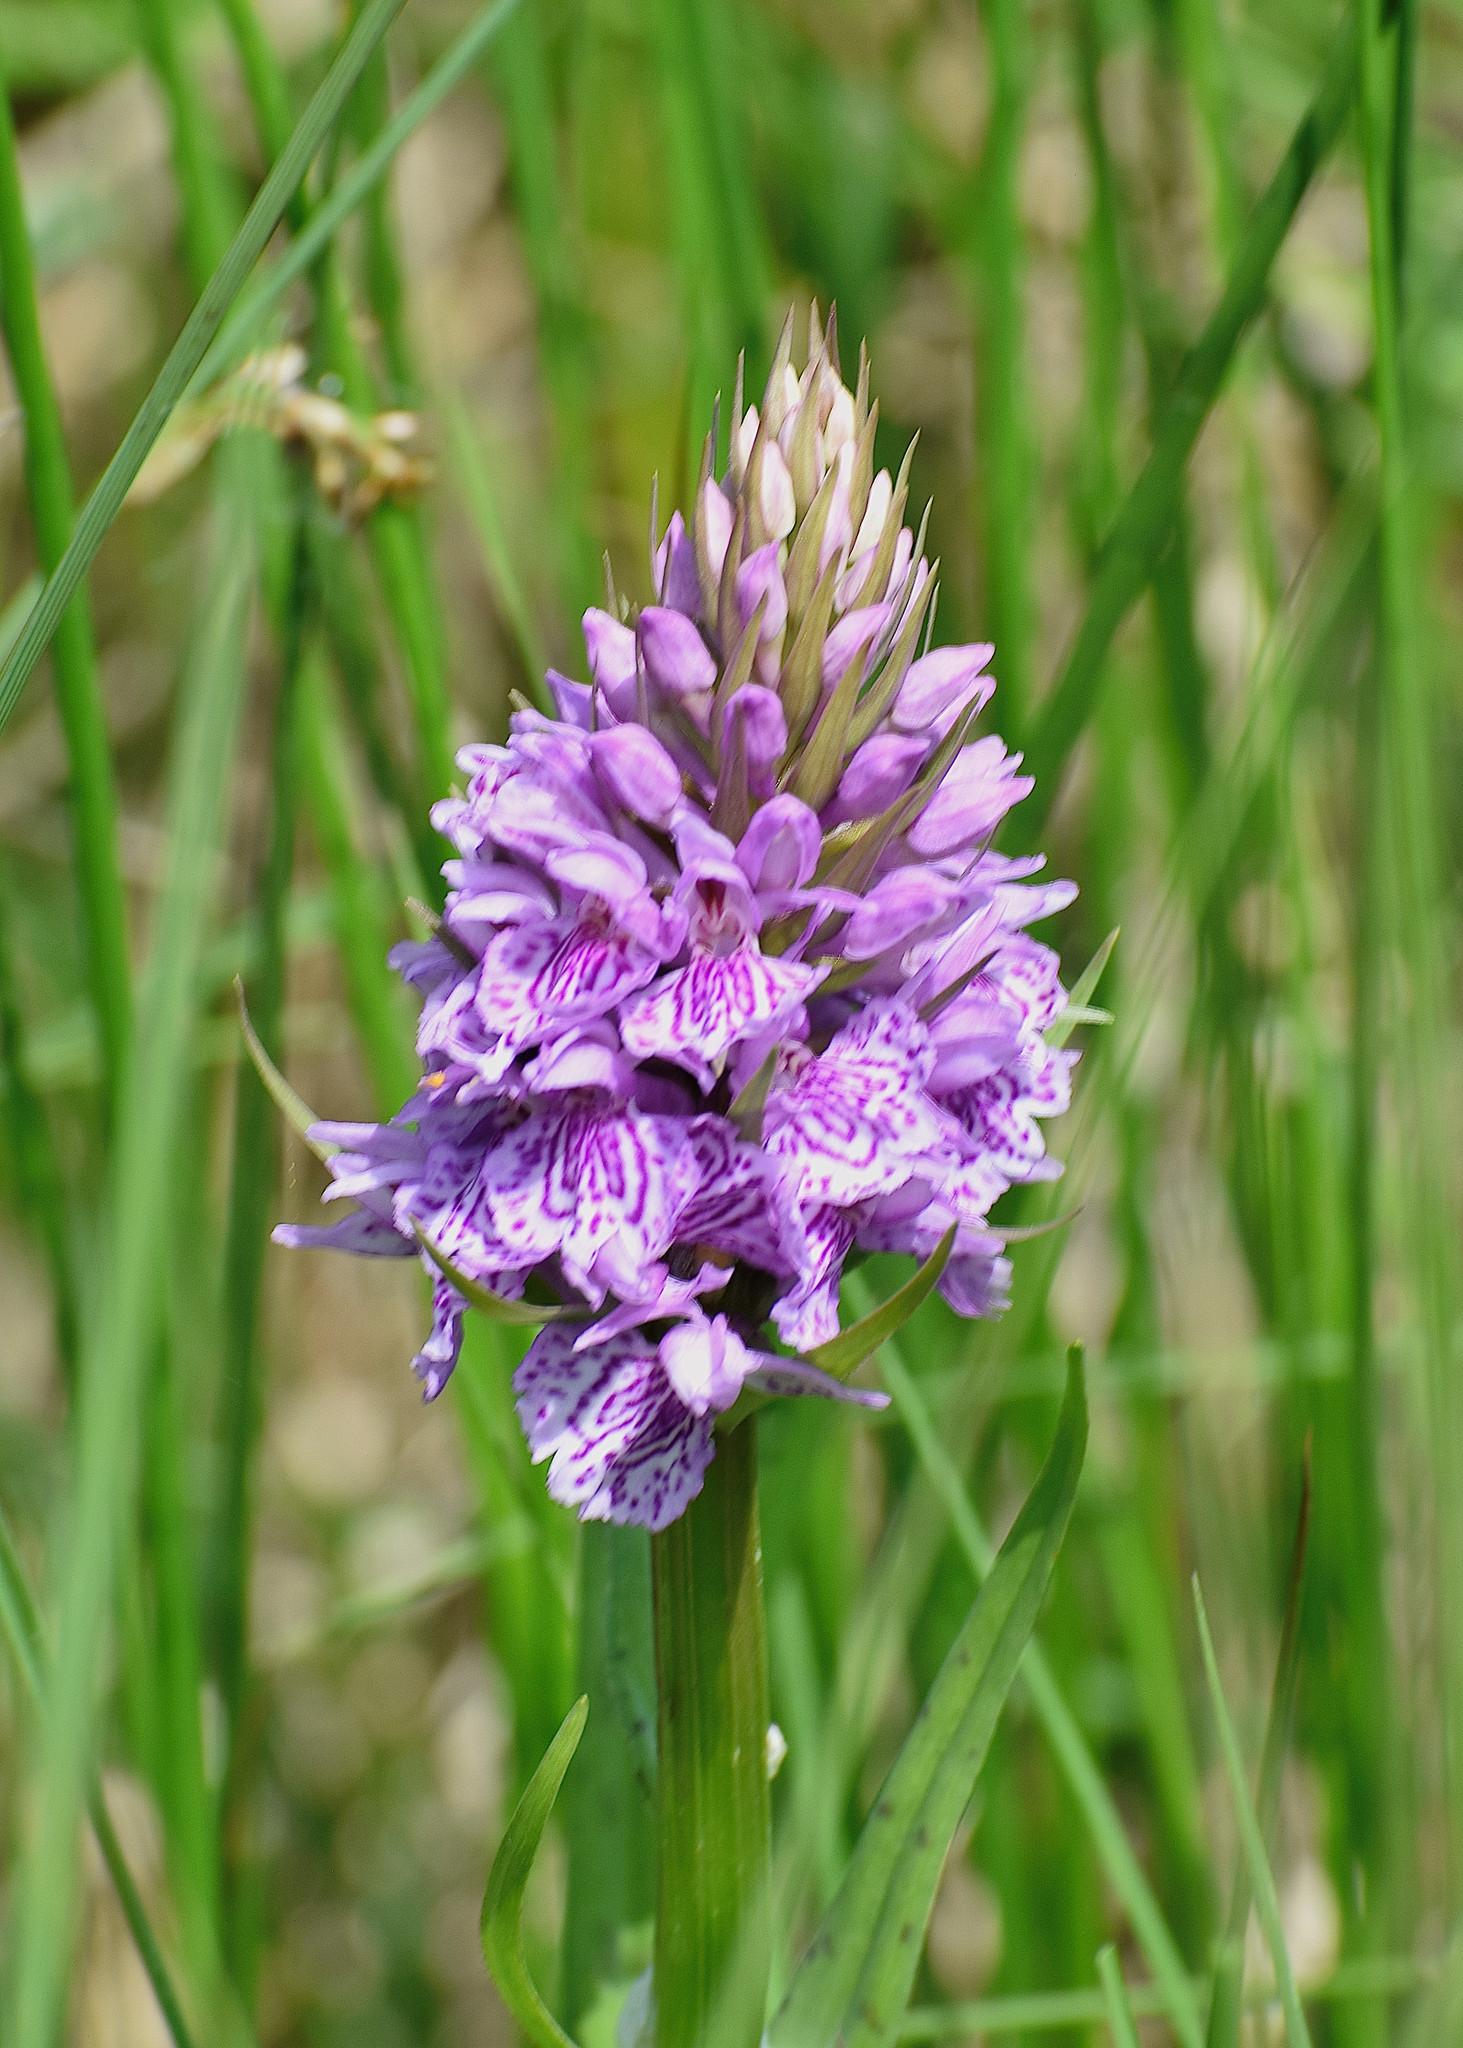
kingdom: Plantae
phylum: Tracheophyta
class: Liliopsida
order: Asparagales
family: Orchidaceae
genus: Dactylorhiza
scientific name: Dactylorhiza maculata
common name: Heath spotted-orchid
